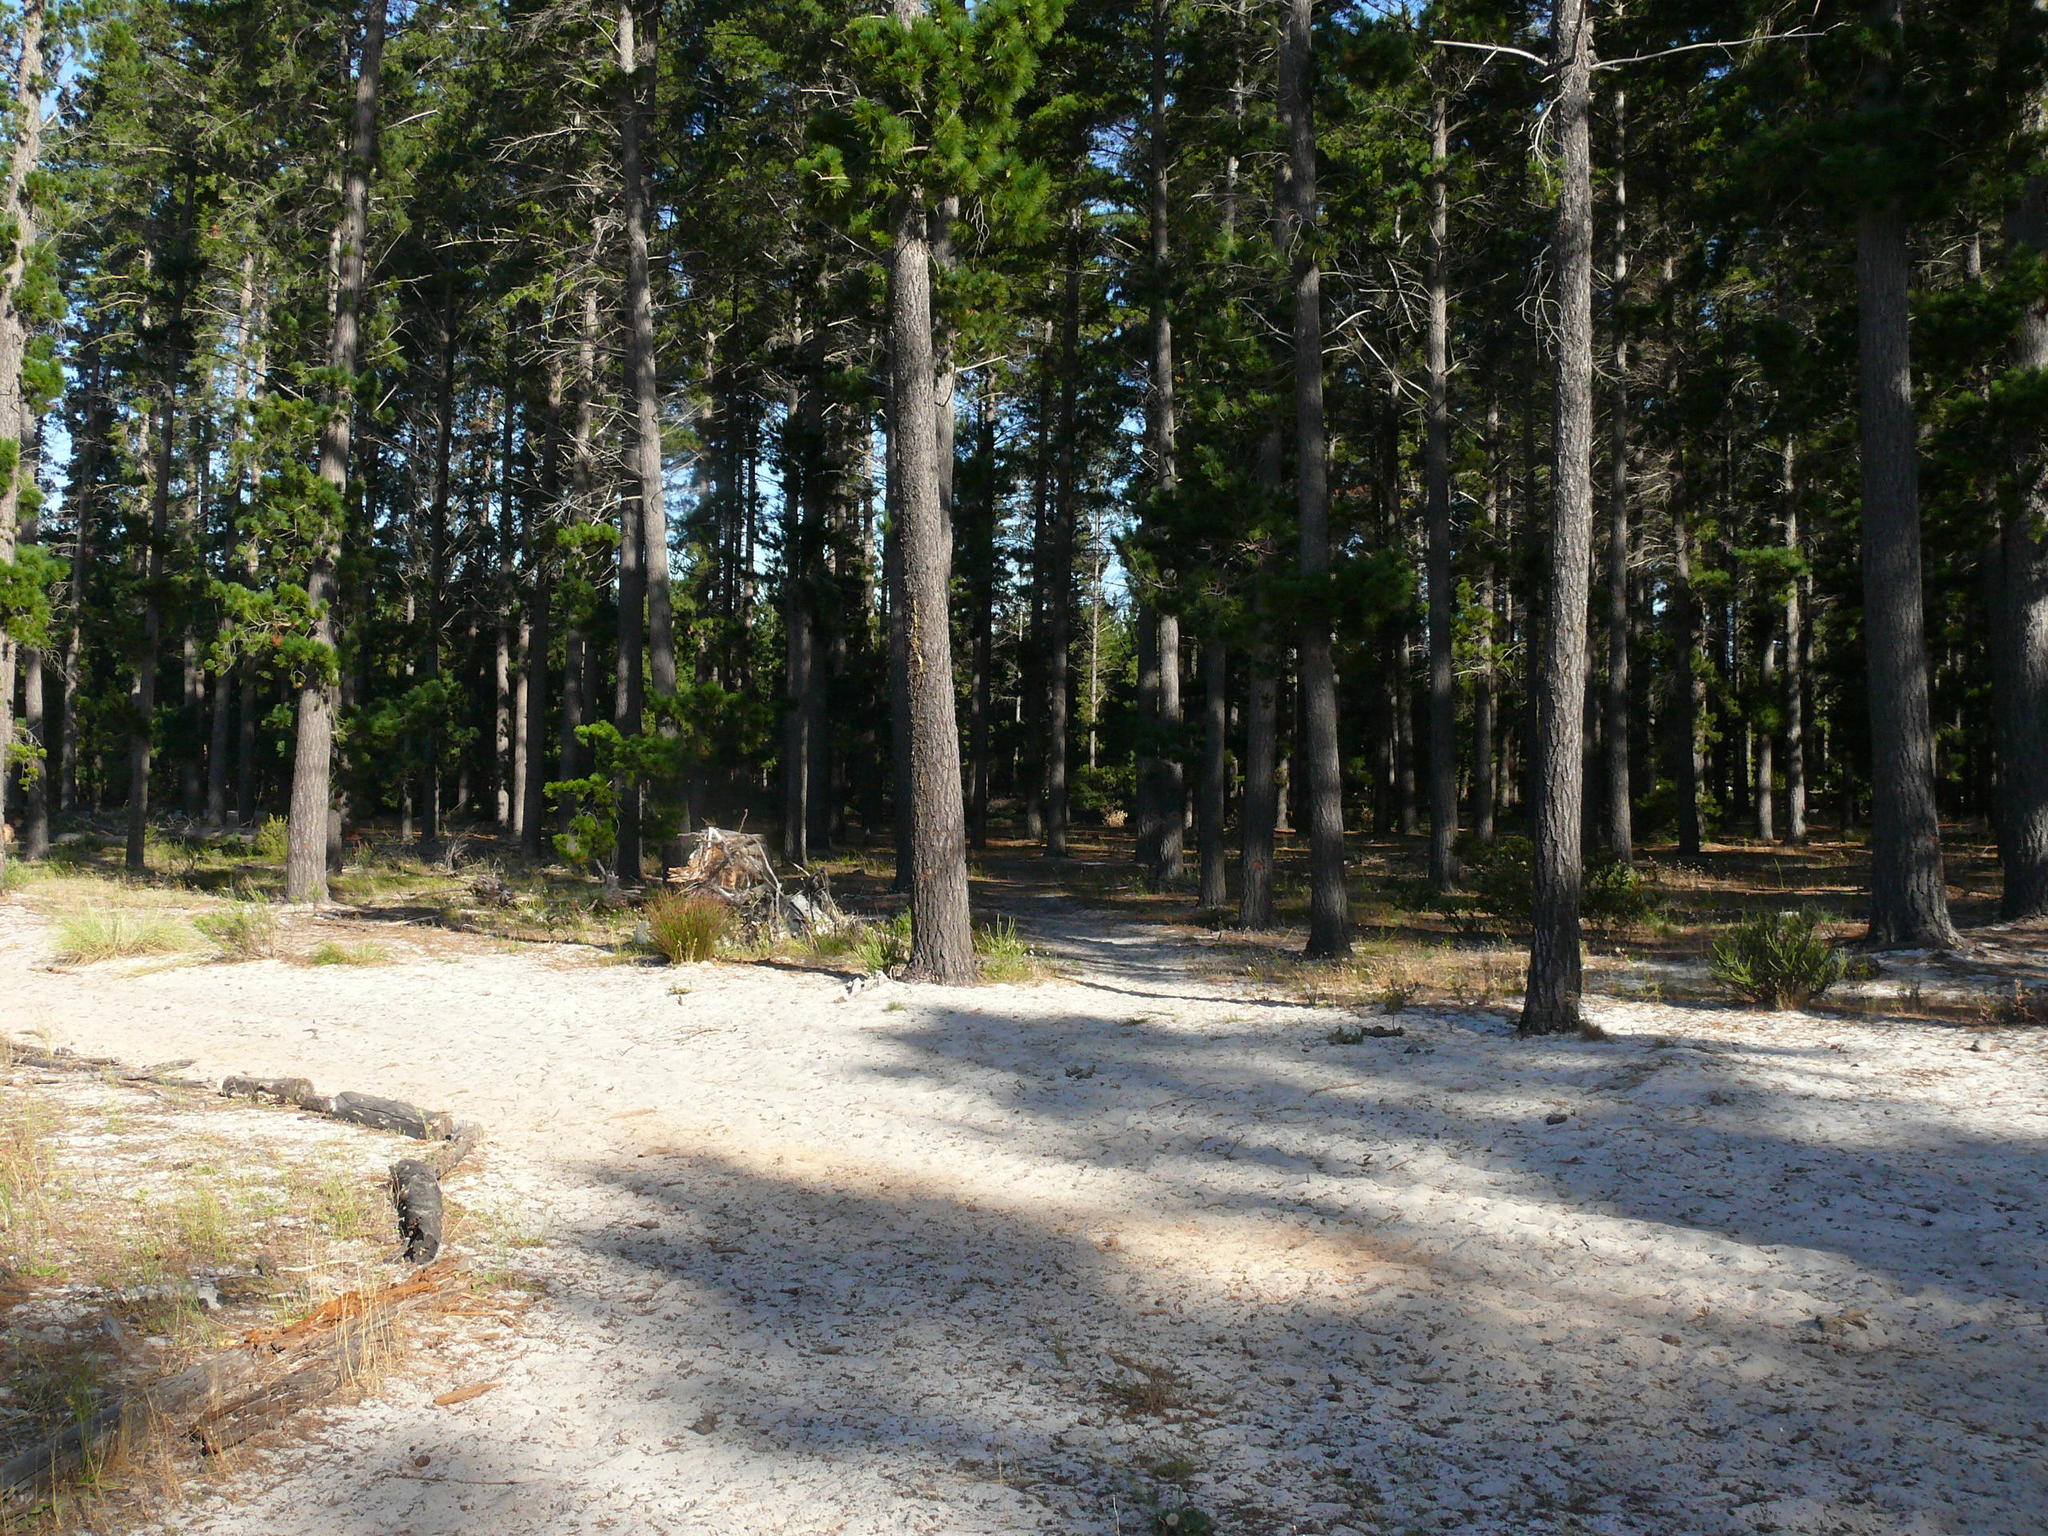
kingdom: Plantae
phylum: Tracheophyta
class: Liliopsida
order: Poales
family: Restionaceae
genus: Staberoha
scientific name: Staberoha distachyos
